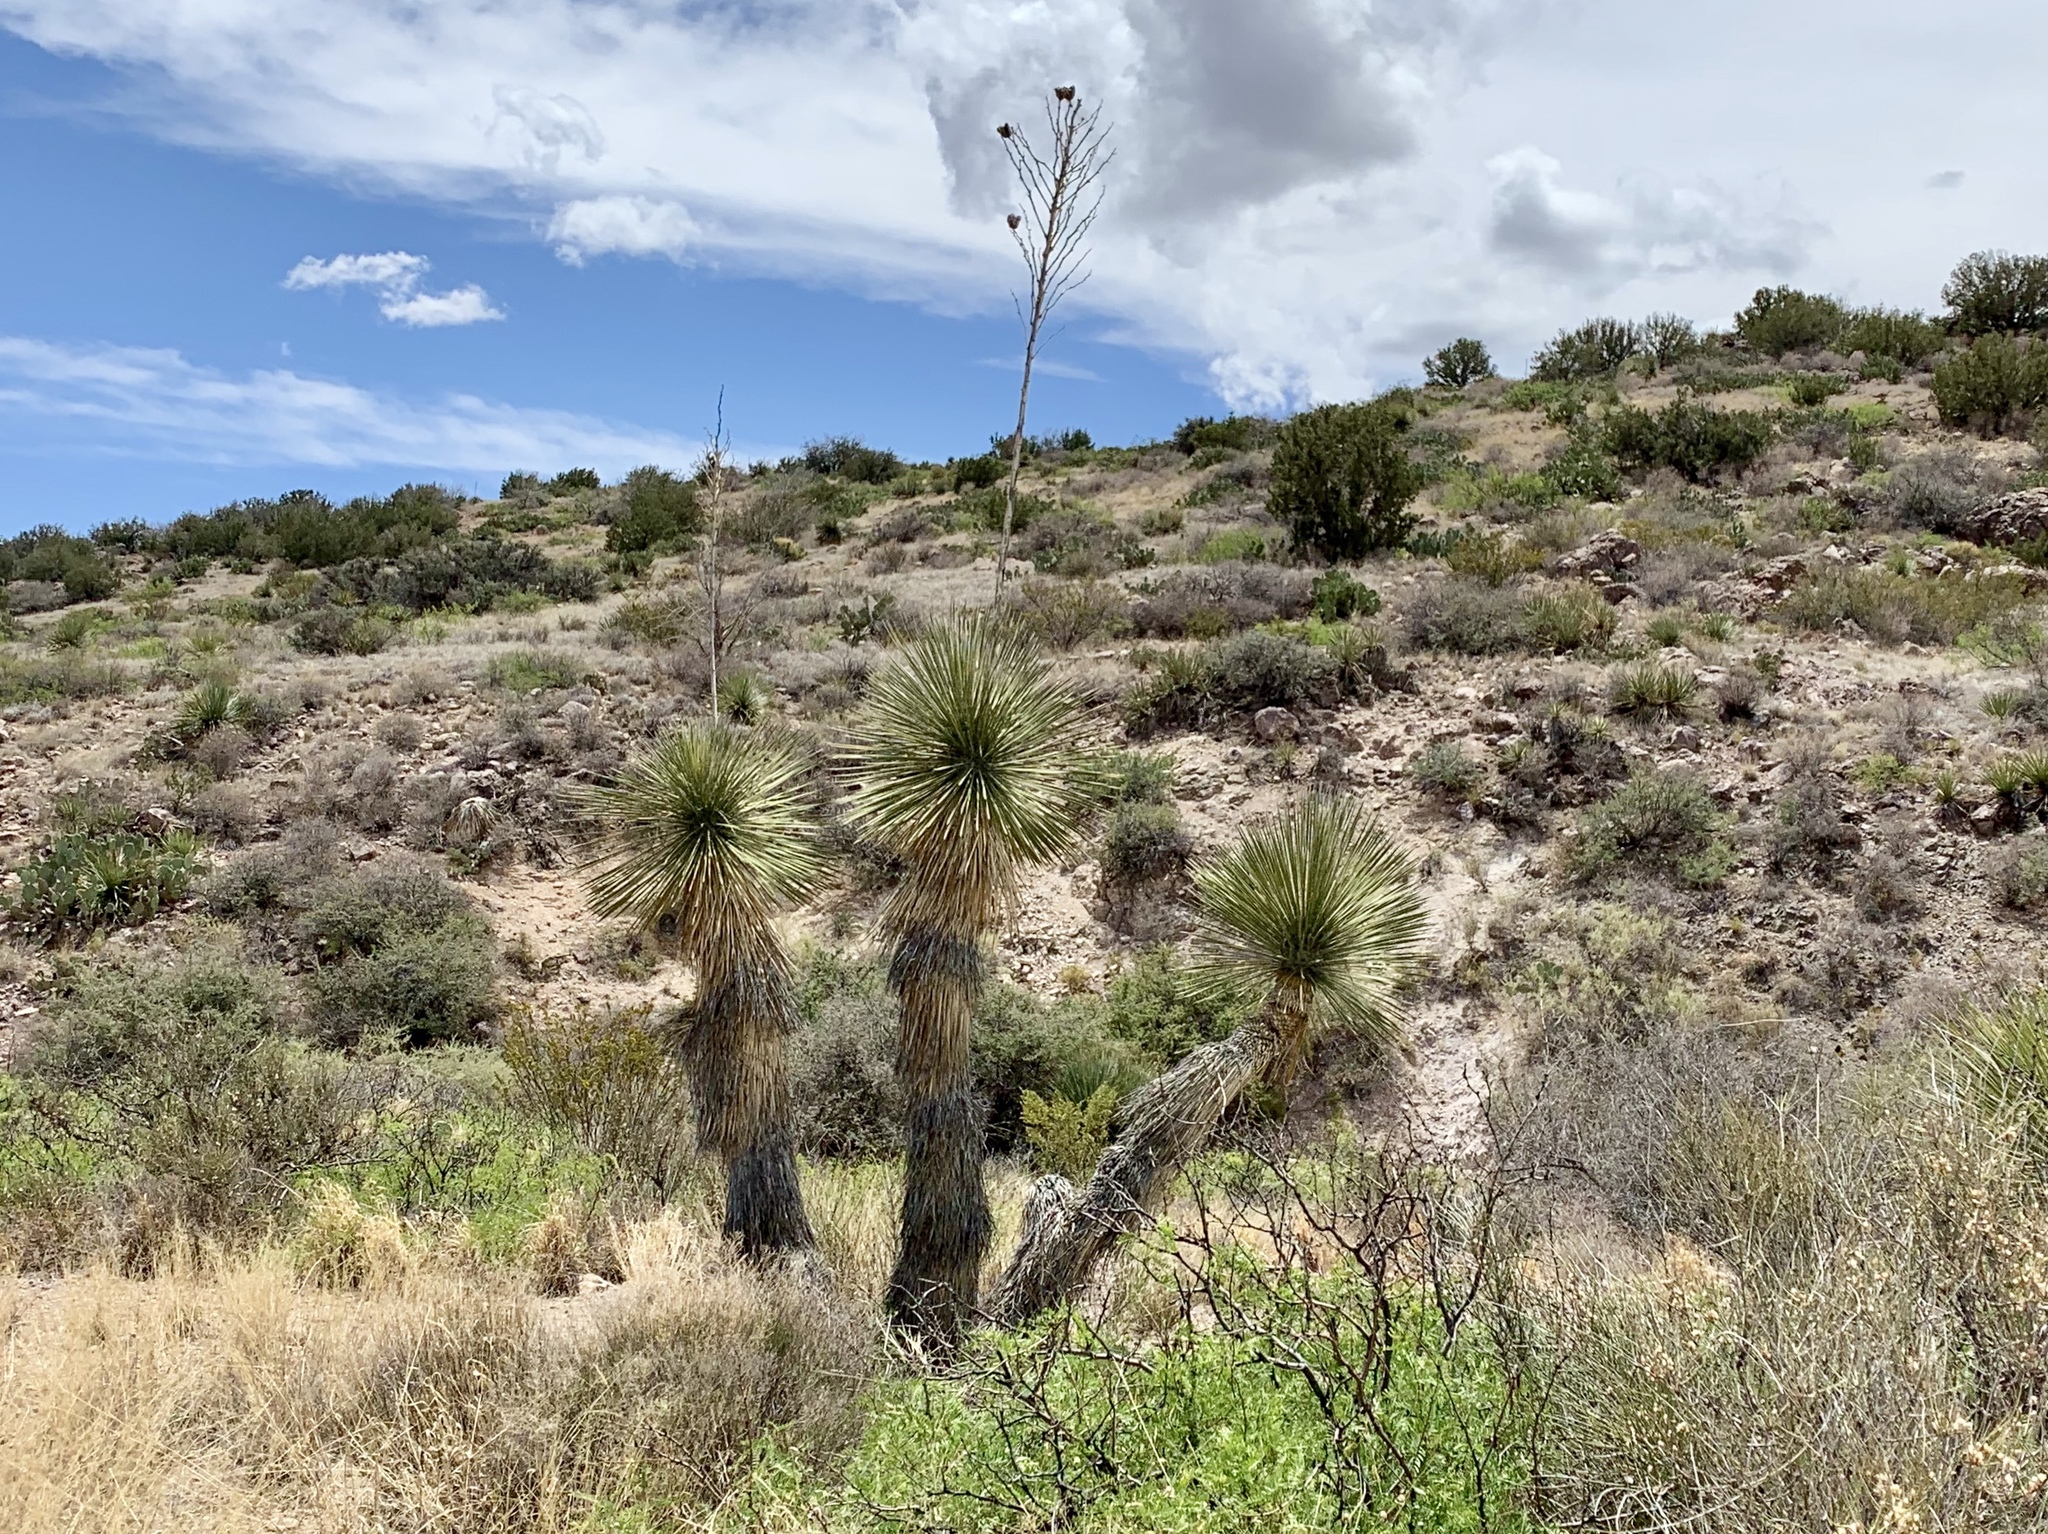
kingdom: Plantae
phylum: Tracheophyta
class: Liliopsida
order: Asparagales
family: Asparagaceae
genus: Yucca
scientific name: Yucca elata
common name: Palmella
